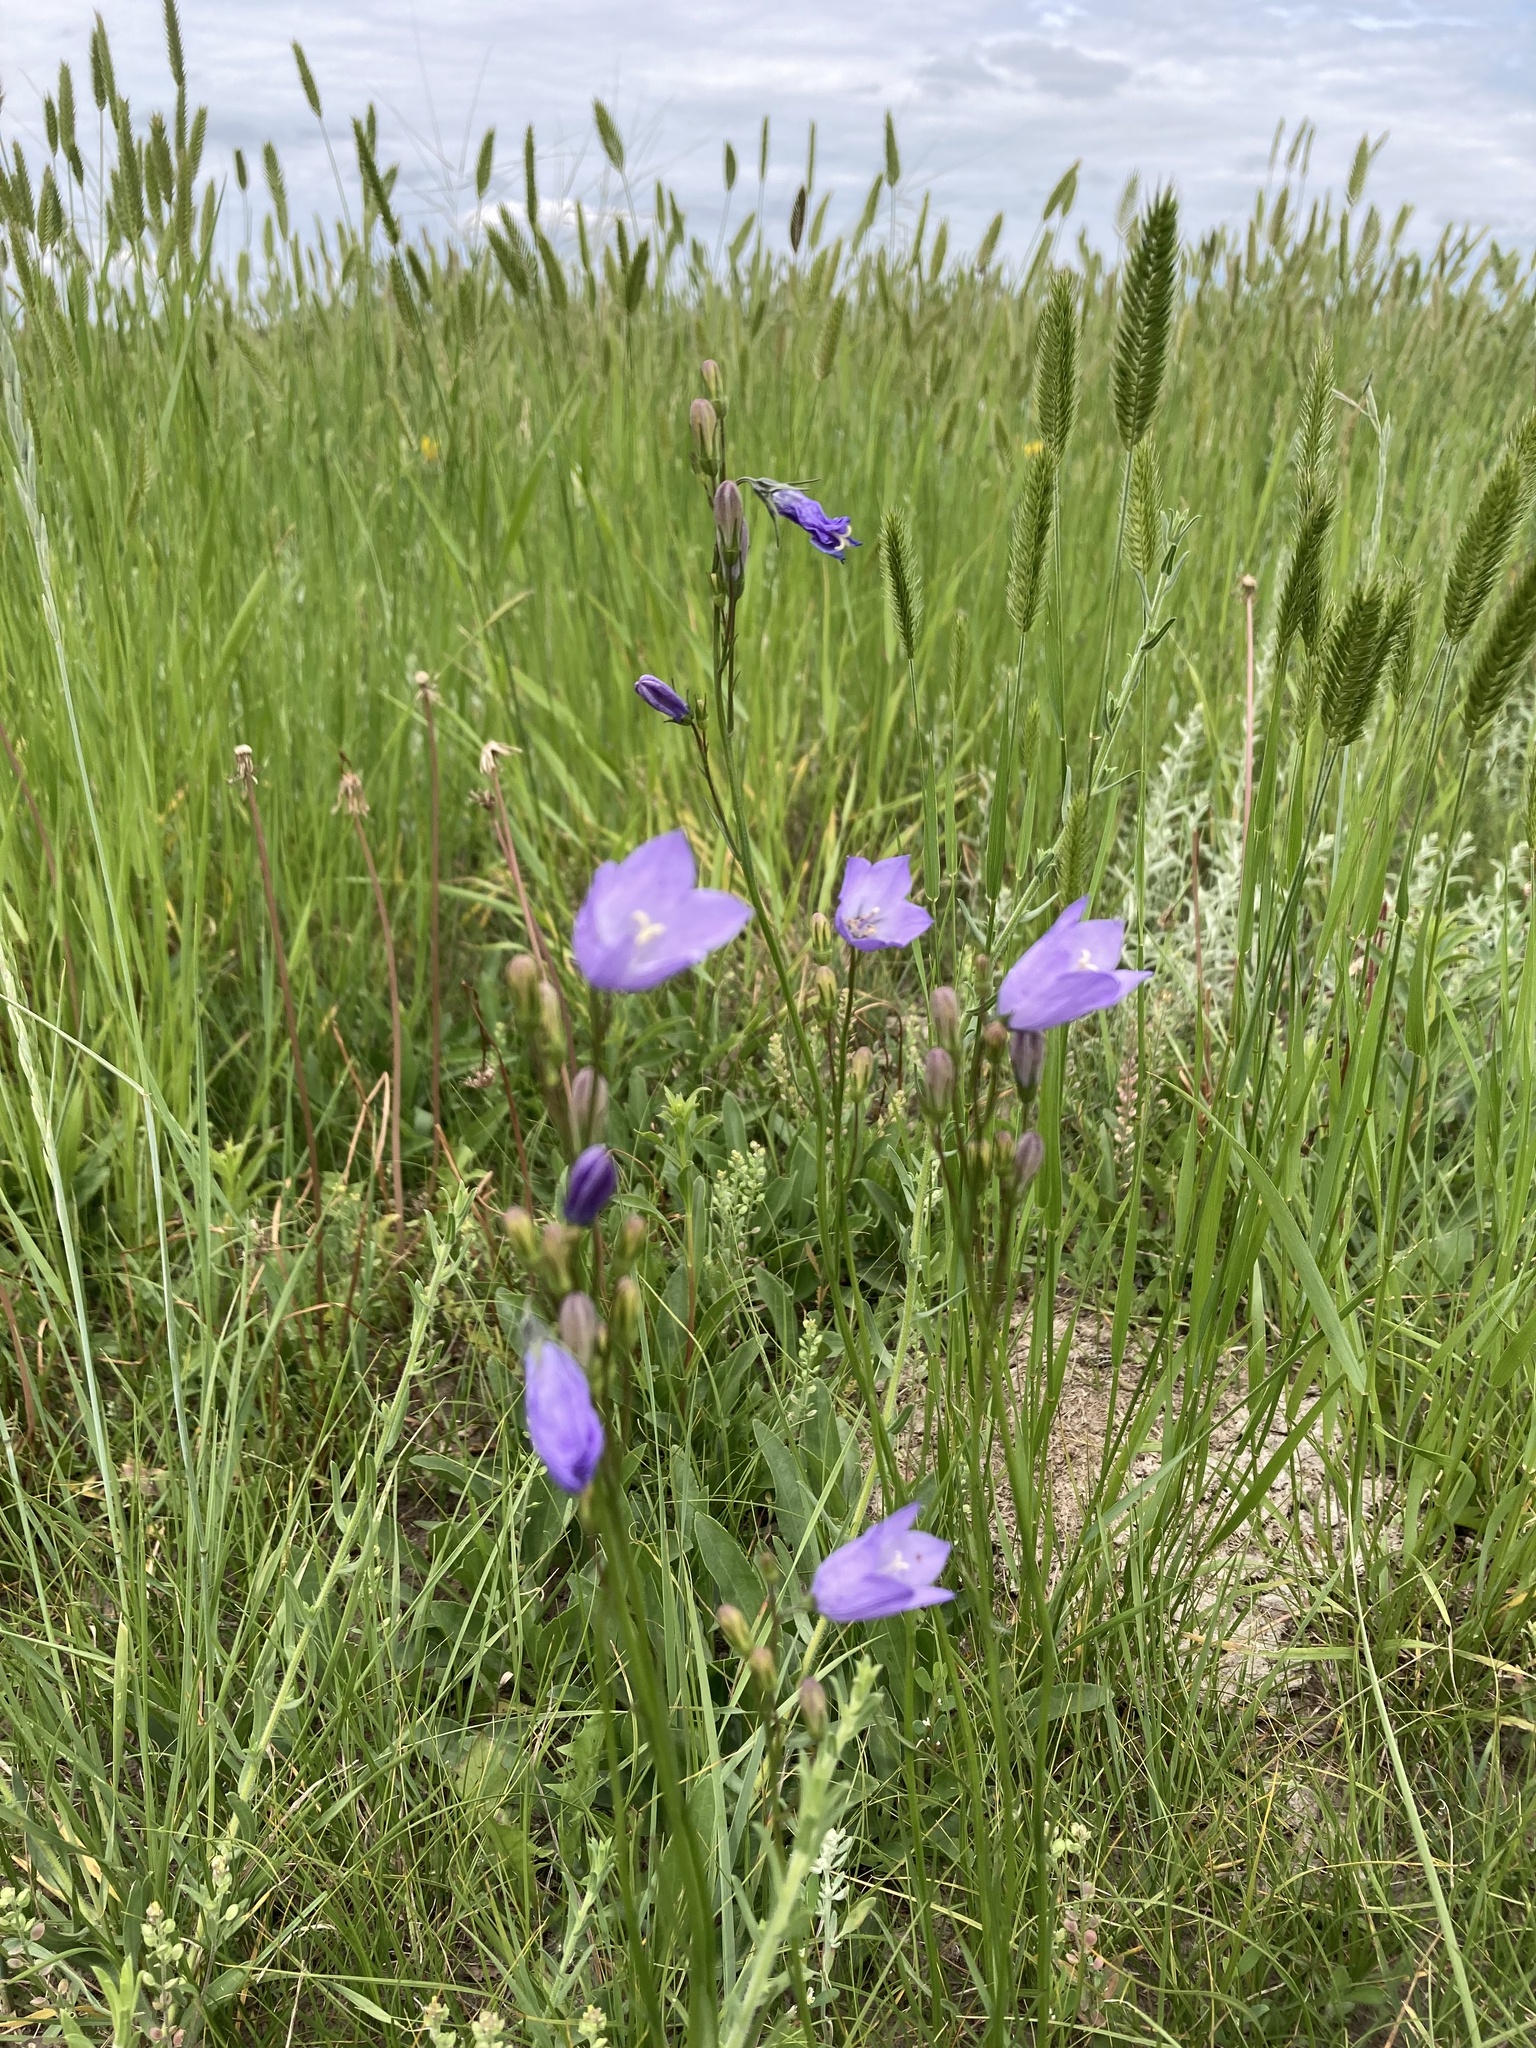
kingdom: Plantae
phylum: Tracheophyta
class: Magnoliopsida
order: Asterales
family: Campanulaceae
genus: Campanula
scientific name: Campanula alaskana
